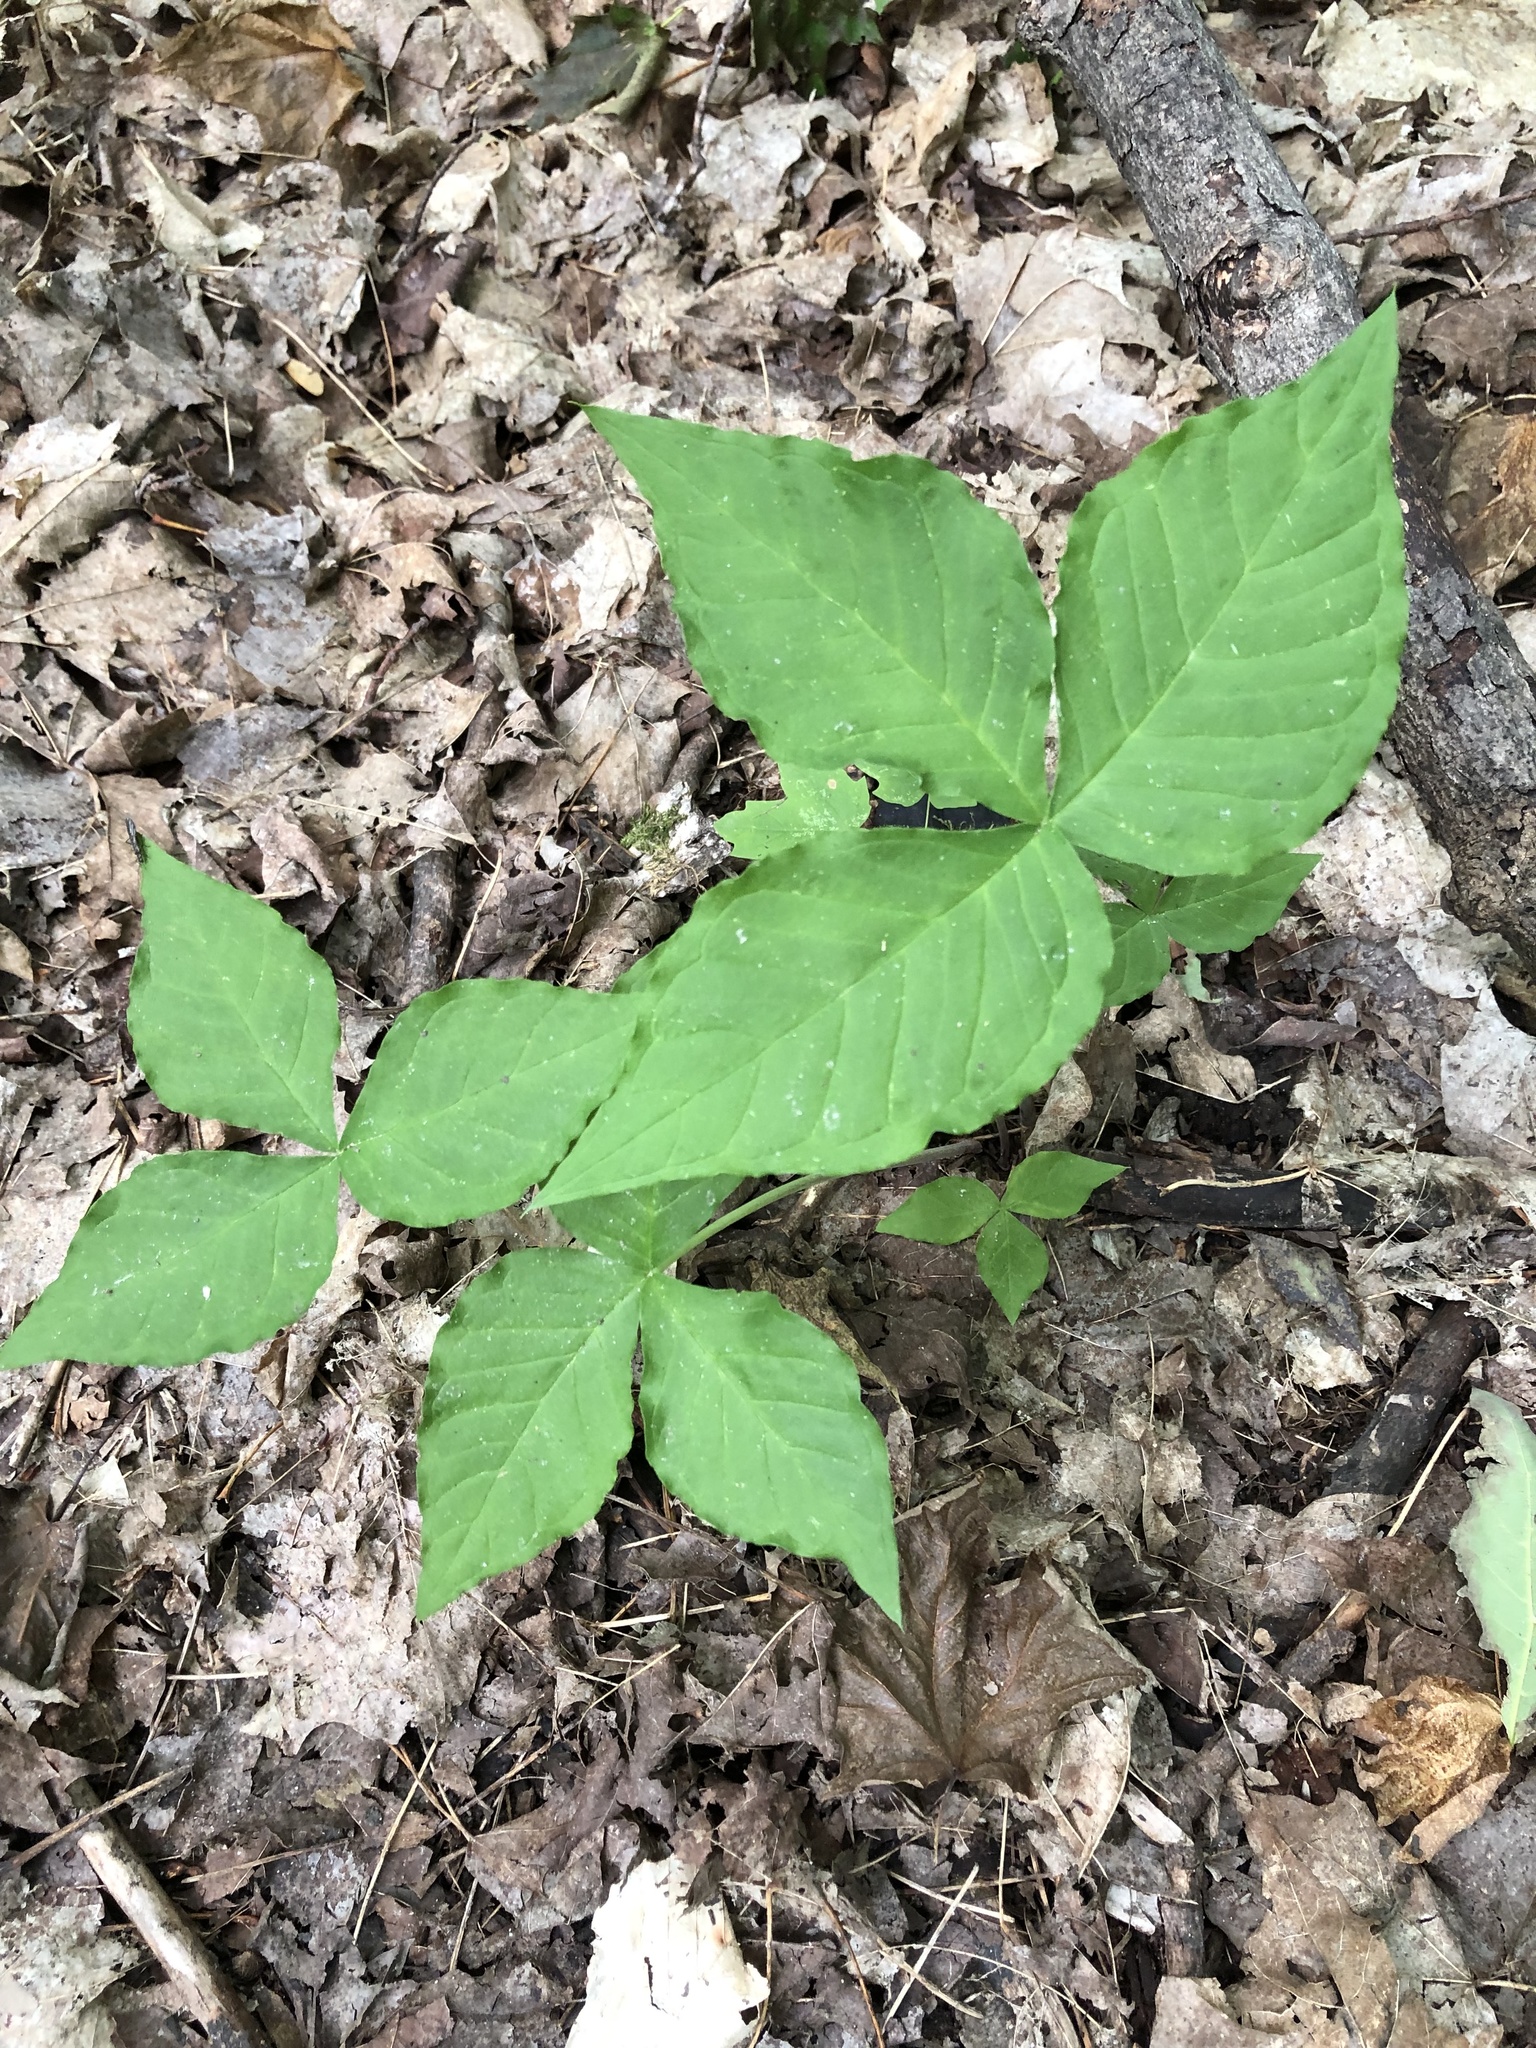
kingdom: Plantae
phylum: Tracheophyta
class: Liliopsida
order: Alismatales
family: Araceae
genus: Arisaema
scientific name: Arisaema triphyllum
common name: Jack-in-the-pulpit
